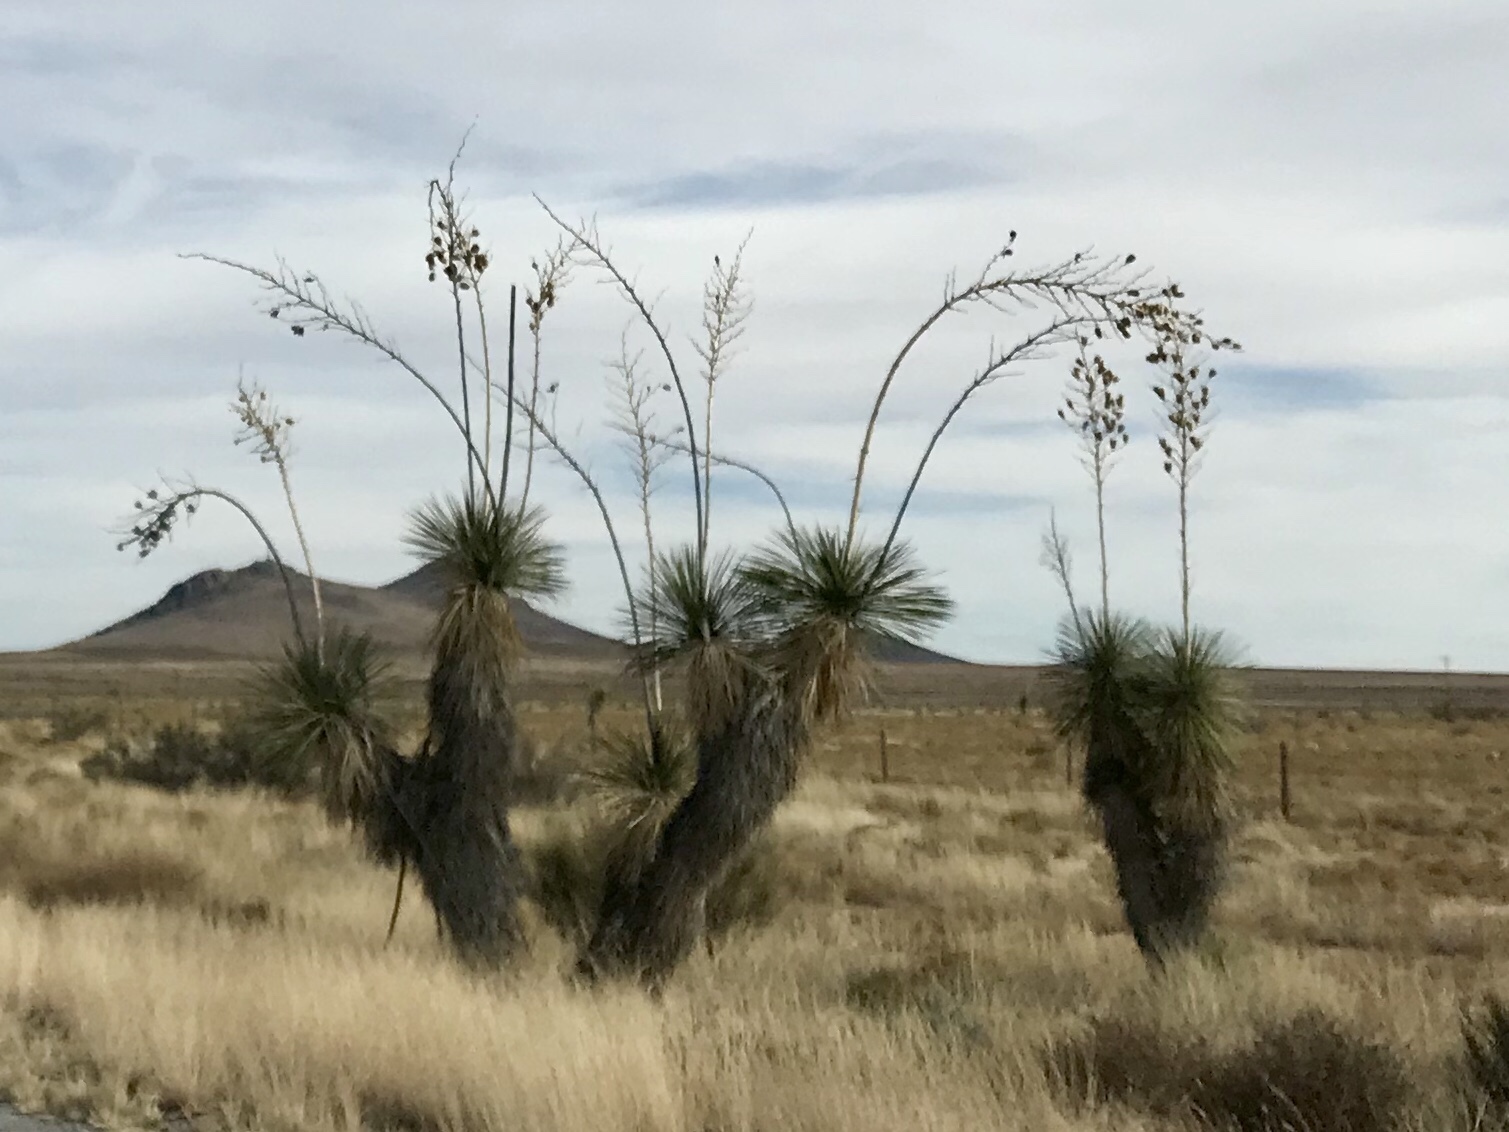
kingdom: Plantae
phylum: Tracheophyta
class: Liliopsida
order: Asparagales
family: Asparagaceae
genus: Yucca
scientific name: Yucca elata
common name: Palmella
